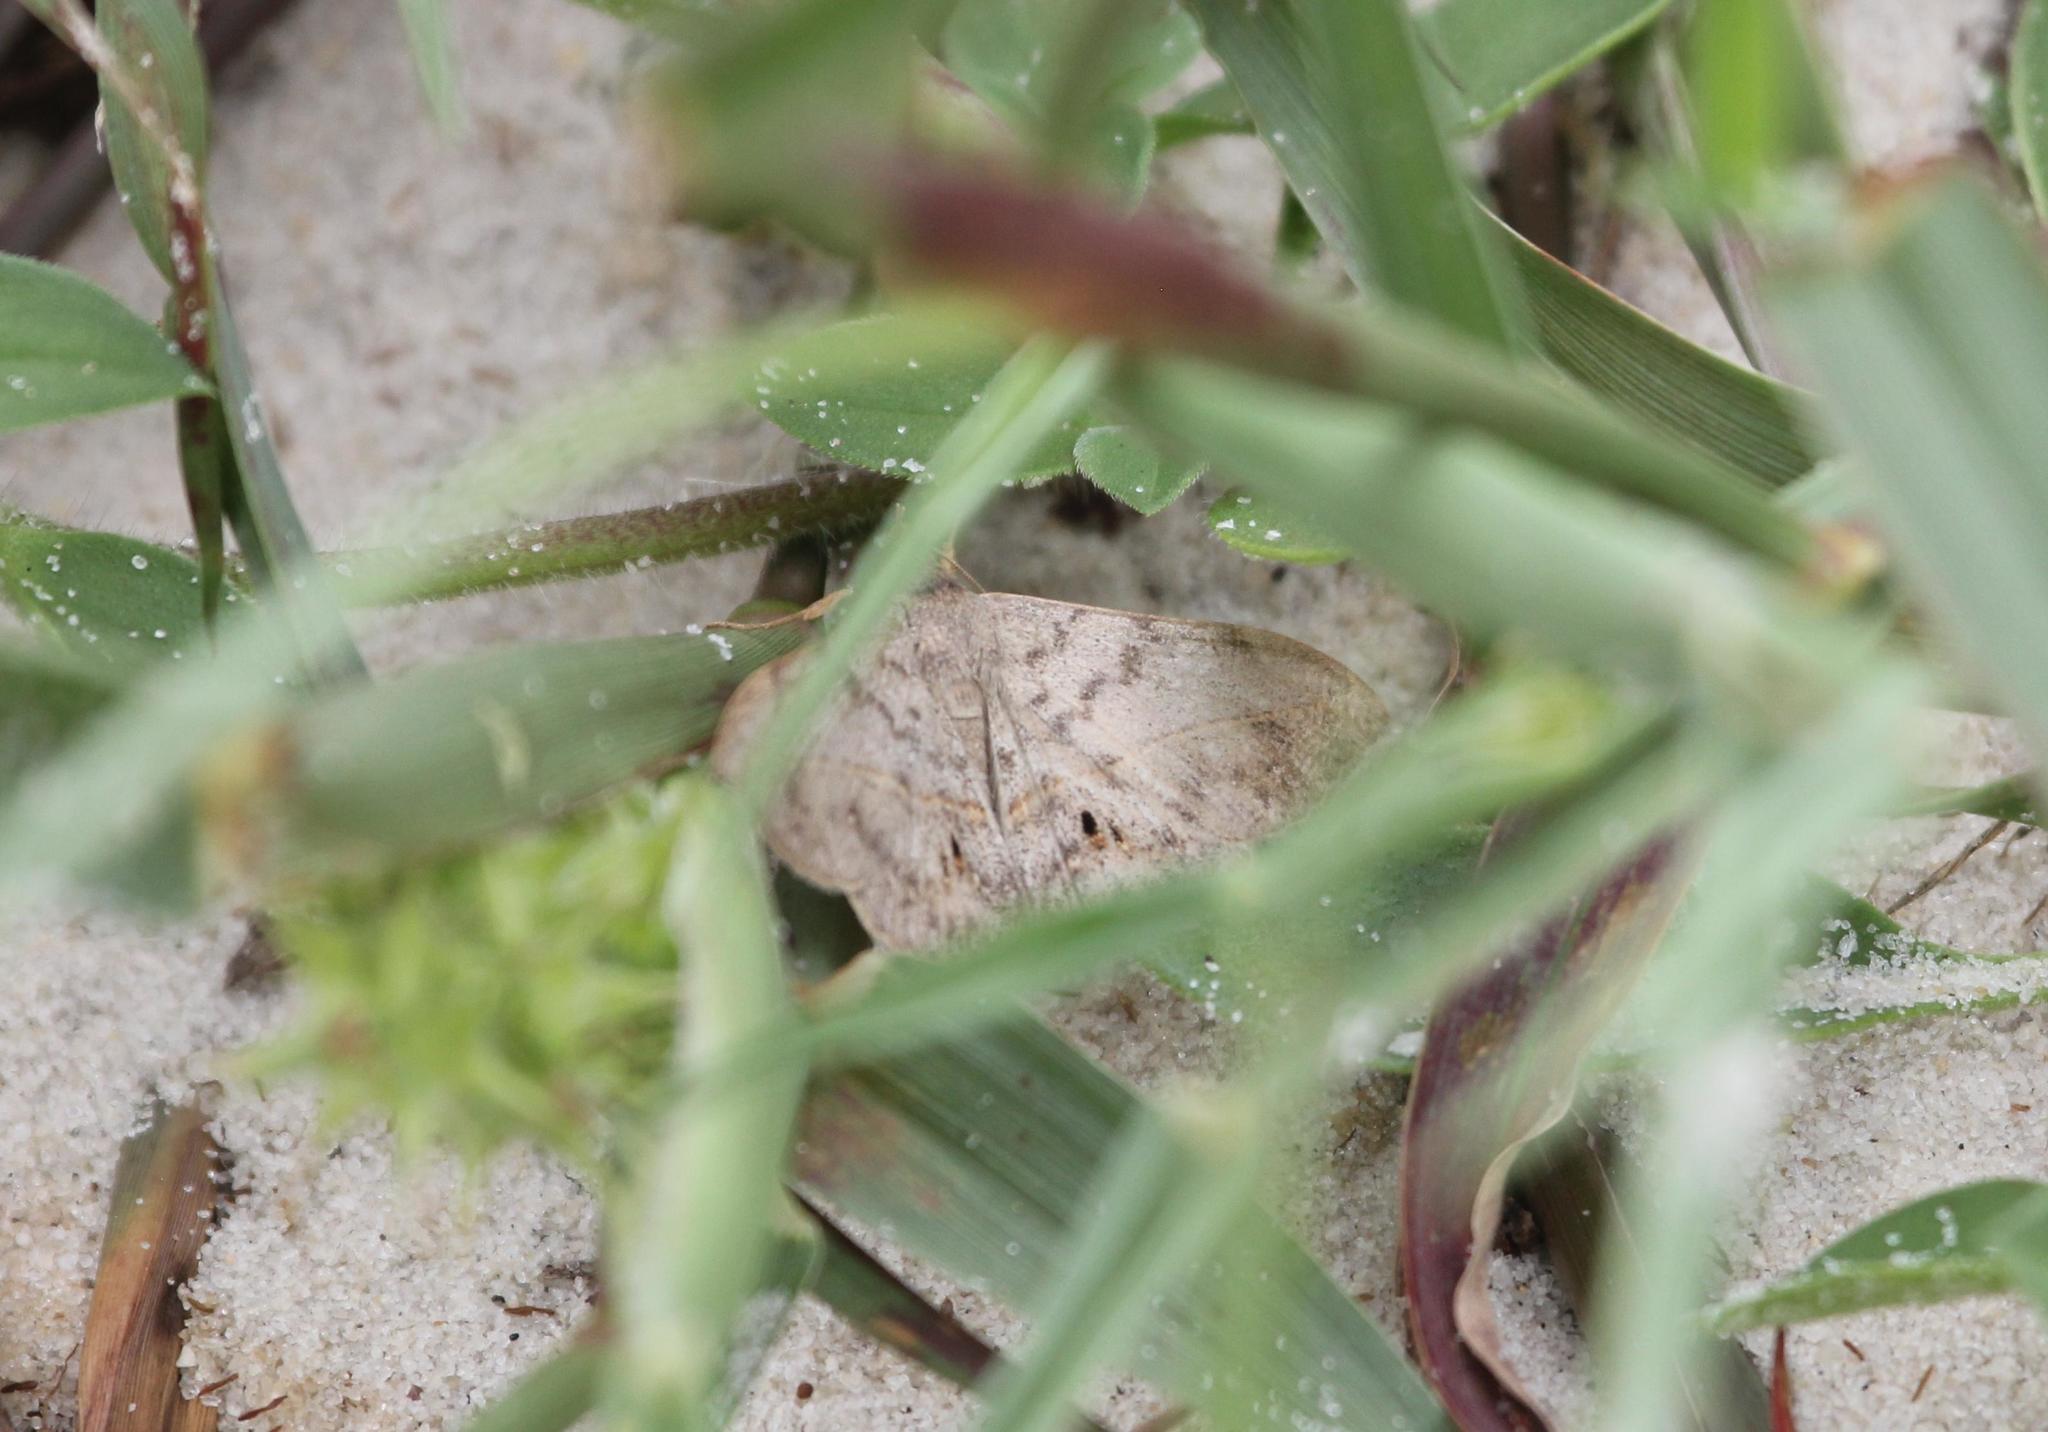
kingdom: Animalia
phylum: Arthropoda
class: Insecta
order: Lepidoptera
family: Erebidae
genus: Anticarsia
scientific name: Anticarsia gemmatalis
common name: Cutworm moth
